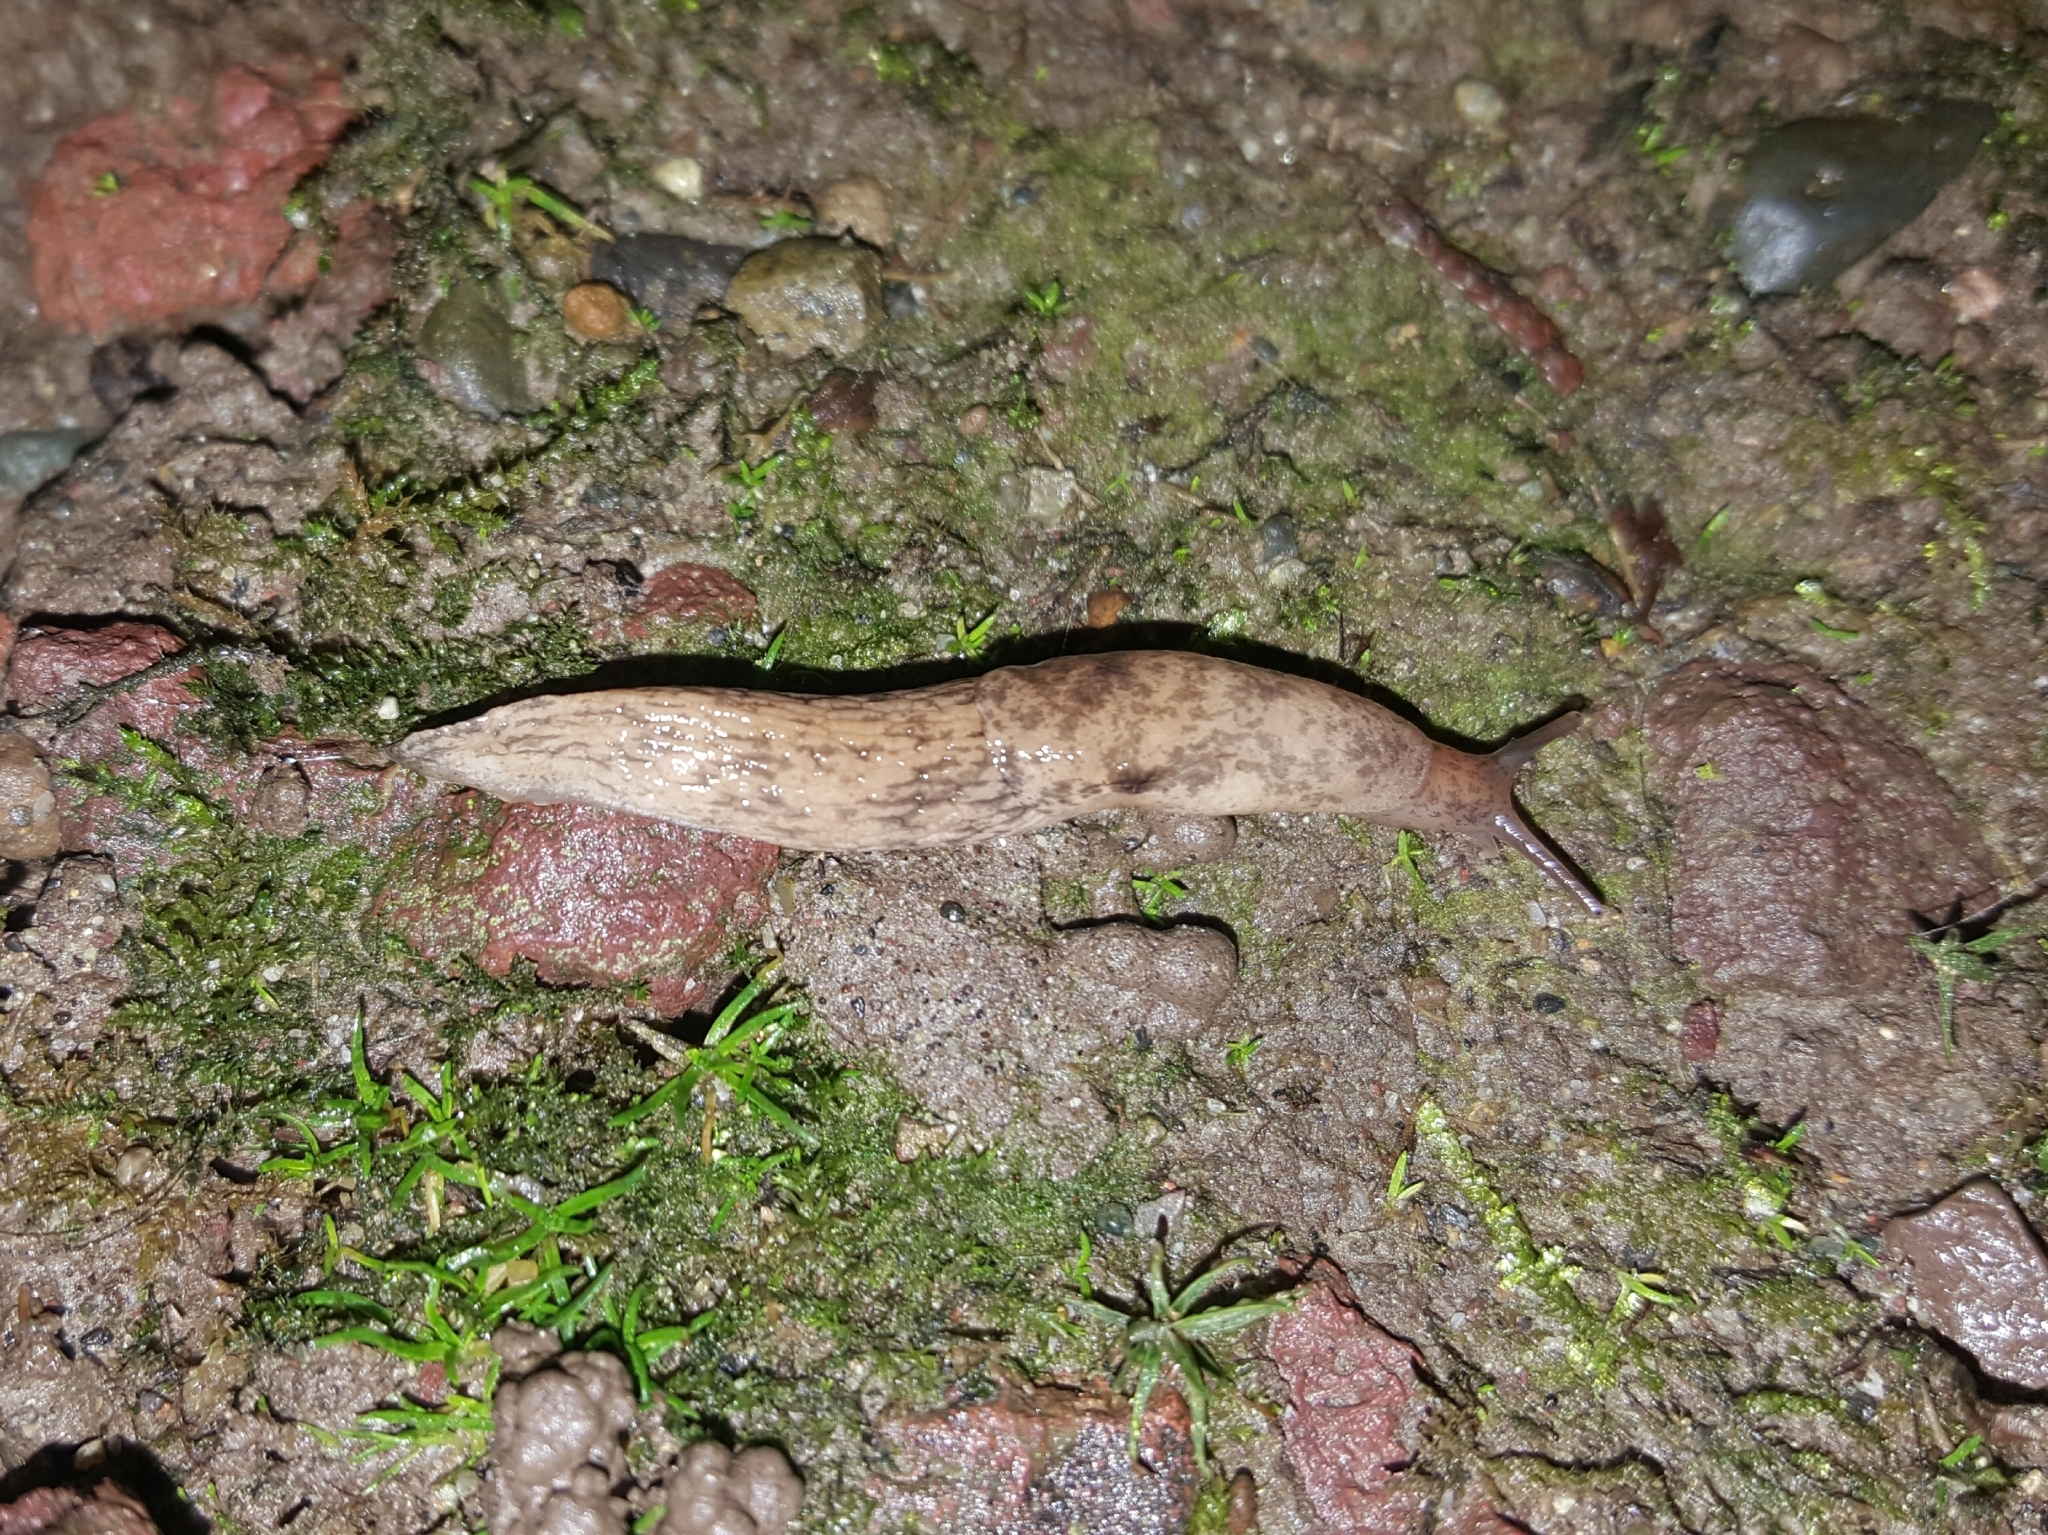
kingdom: Animalia
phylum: Mollusca
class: Gastropoda
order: Stylommatophora
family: Agriolimacidae
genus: Deroceras
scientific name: Deroceras reticulatum
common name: Gray field slug
